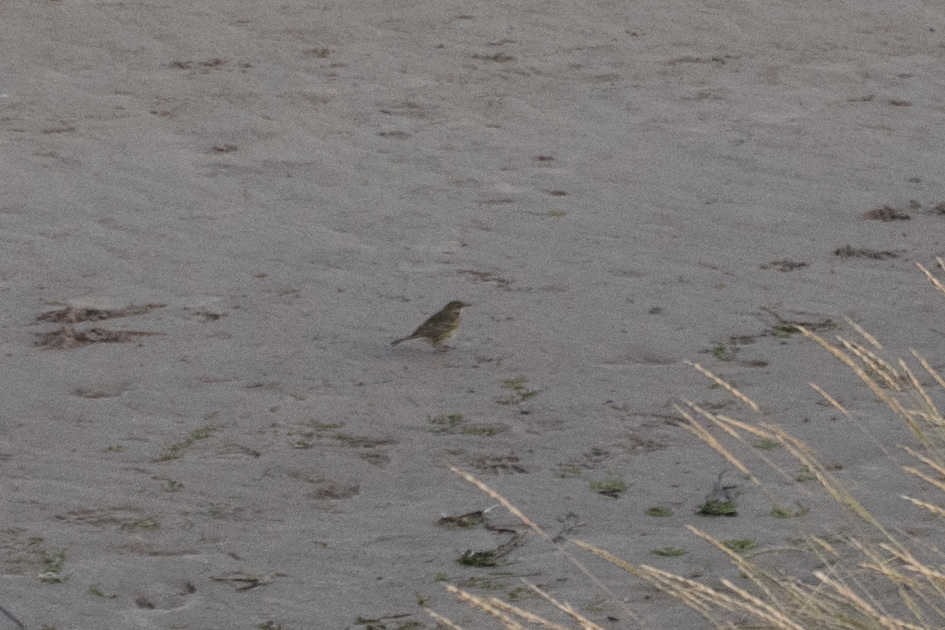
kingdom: Animalia
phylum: Chordata
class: Aves
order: Passeriformes
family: Motacillidae
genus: Anthus
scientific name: Anthus petrosus
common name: Eurasian rock pipit
